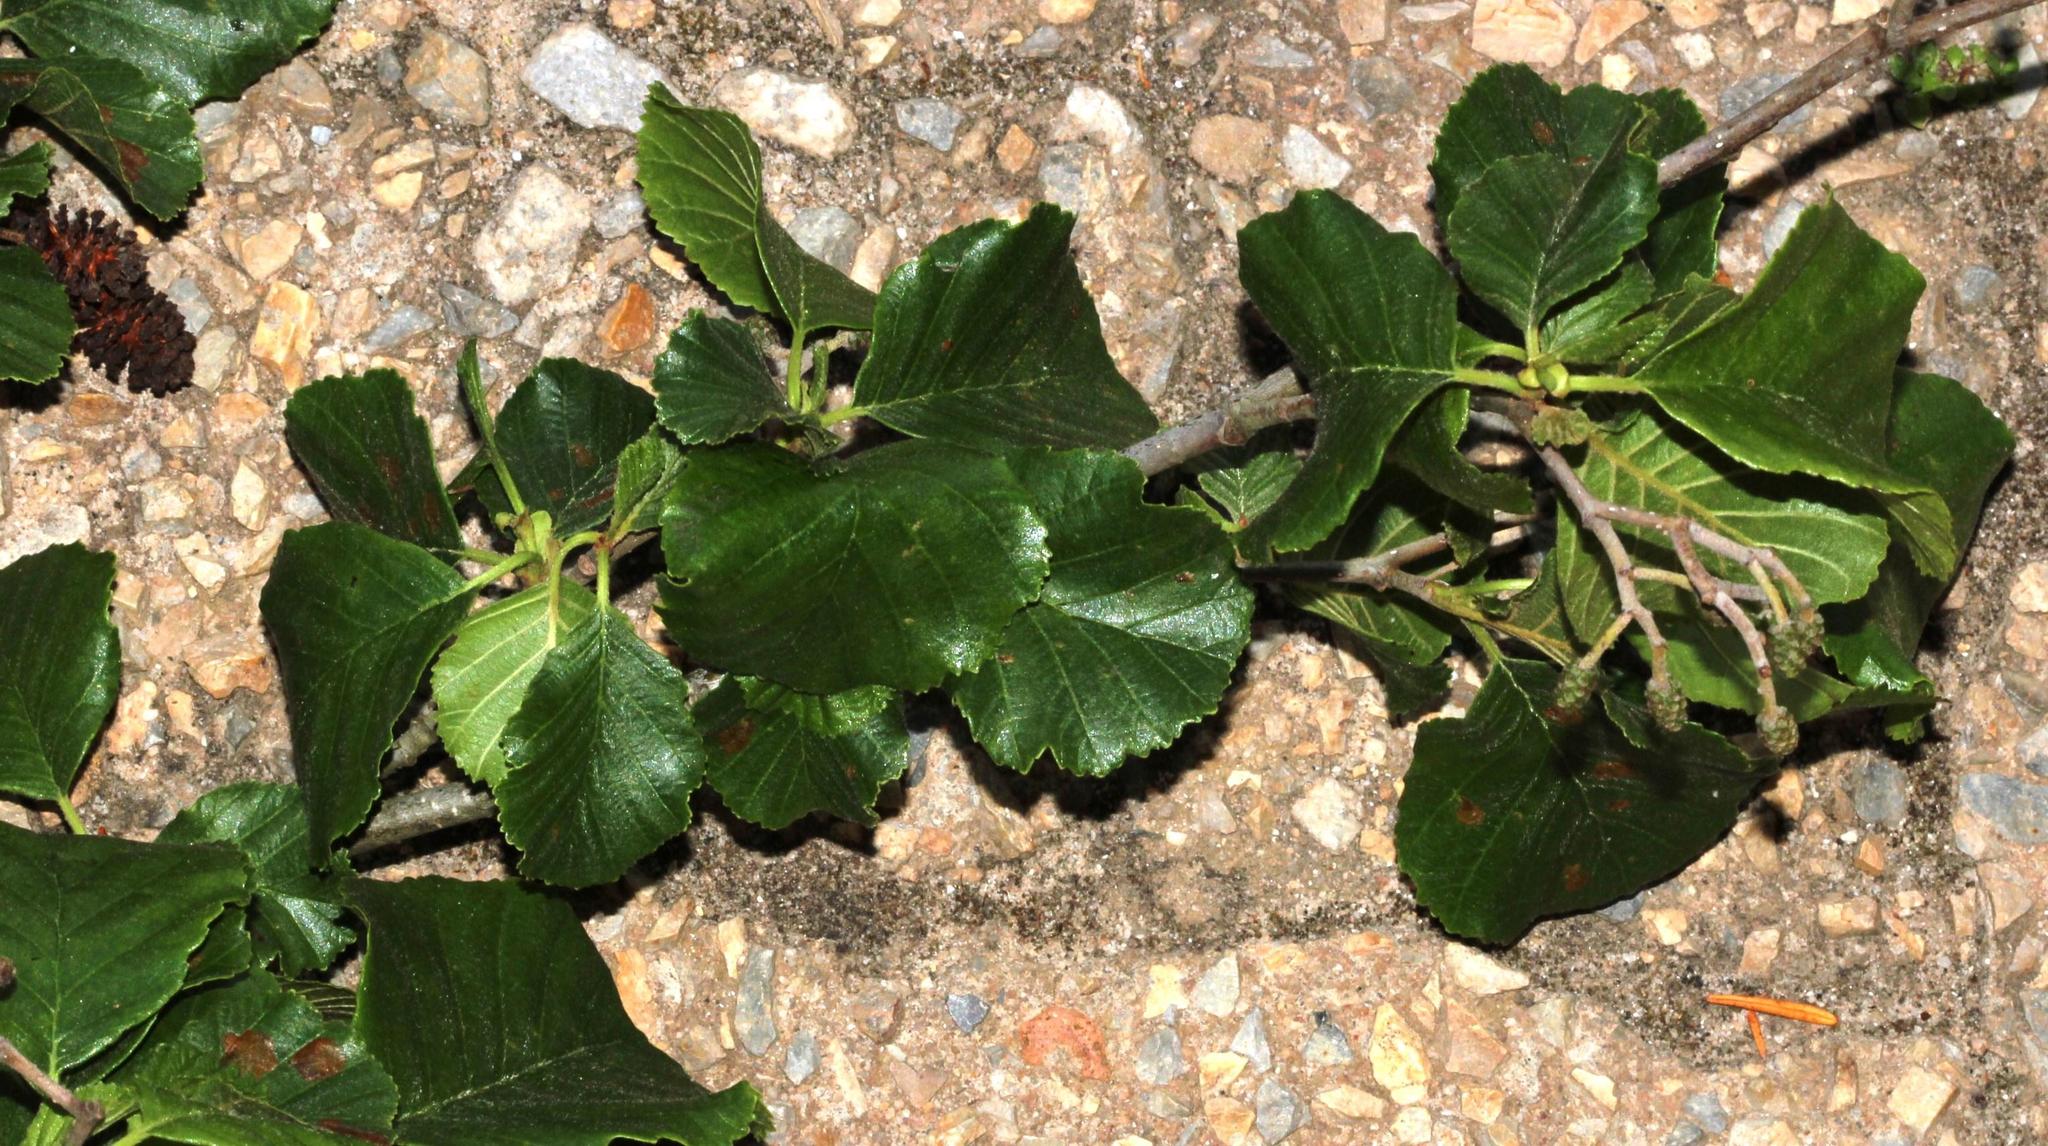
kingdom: Plantae
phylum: Tracheophyta
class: Magnoliopsida
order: Fagales
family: Betulaceae
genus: Alnus
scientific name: Alnus glutinosa
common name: Black alder
